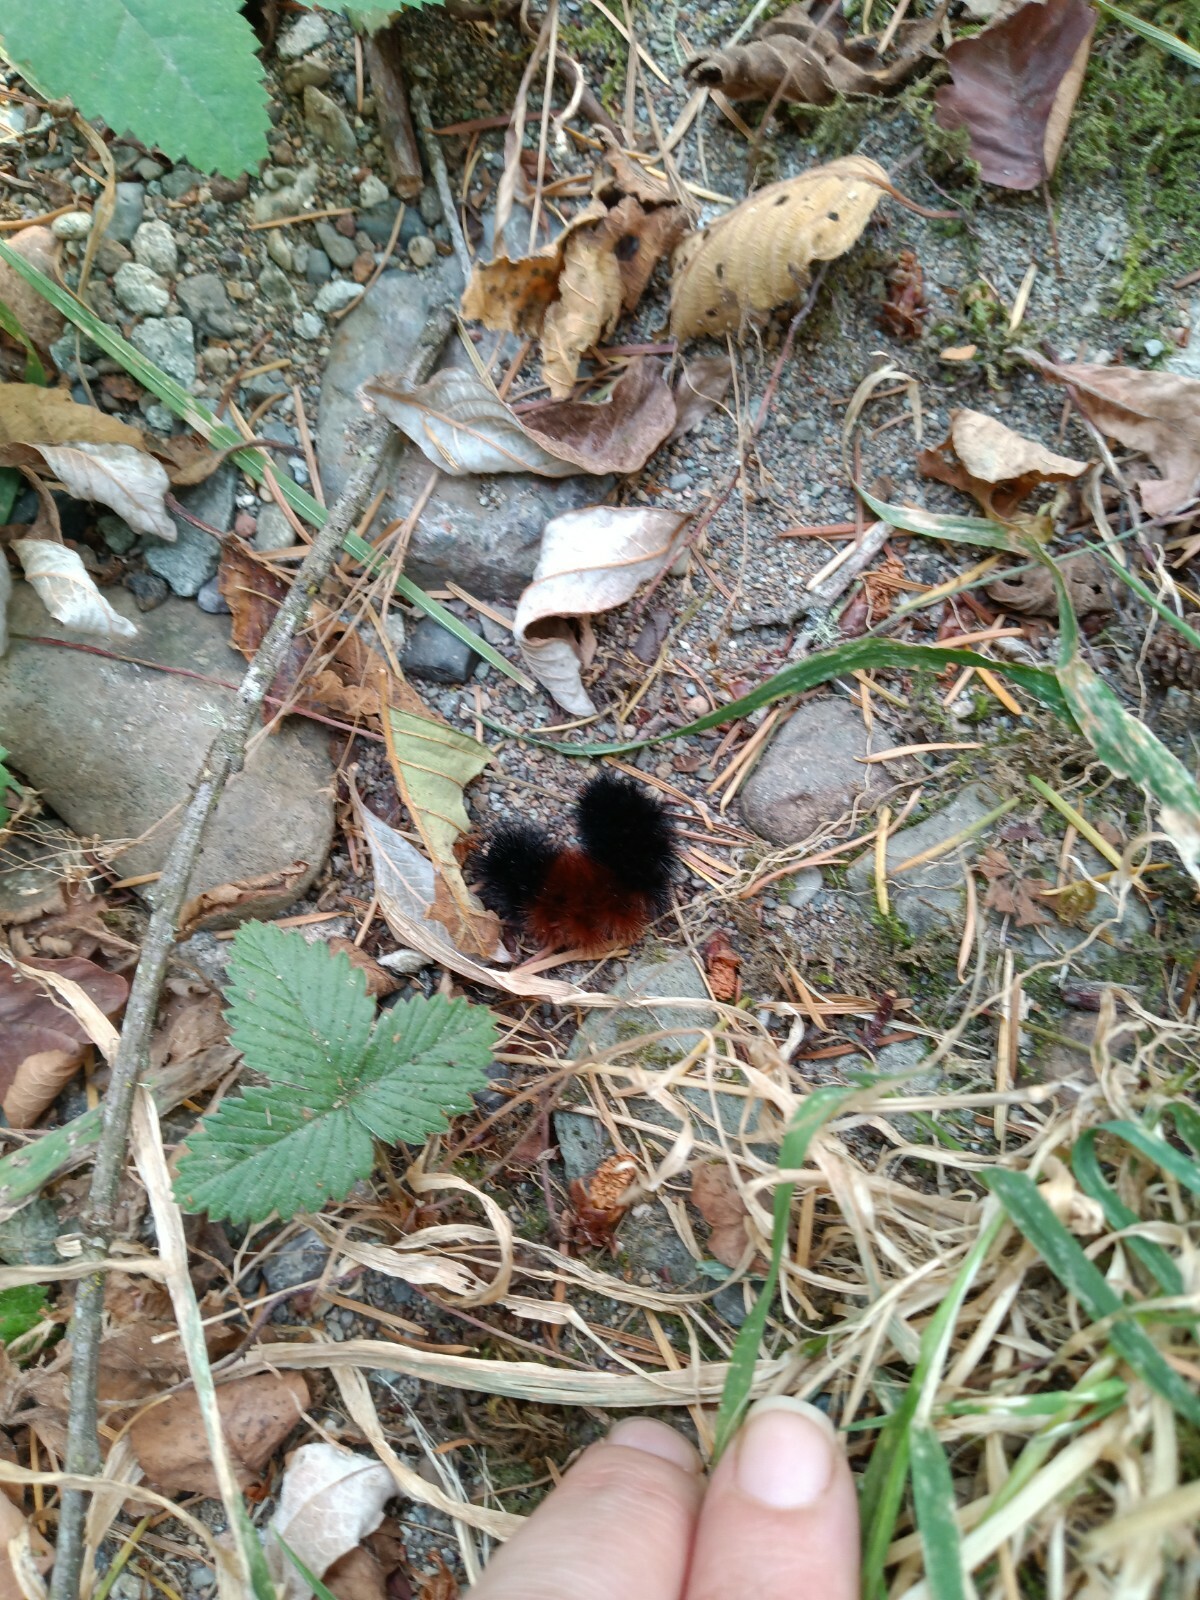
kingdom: Animalia
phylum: Arthropoda
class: Insecta
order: Lepidoptera
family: Erebidae
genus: Pyrrharctia
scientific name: Pyrrharctia isabella
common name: Isabella tiger moth
